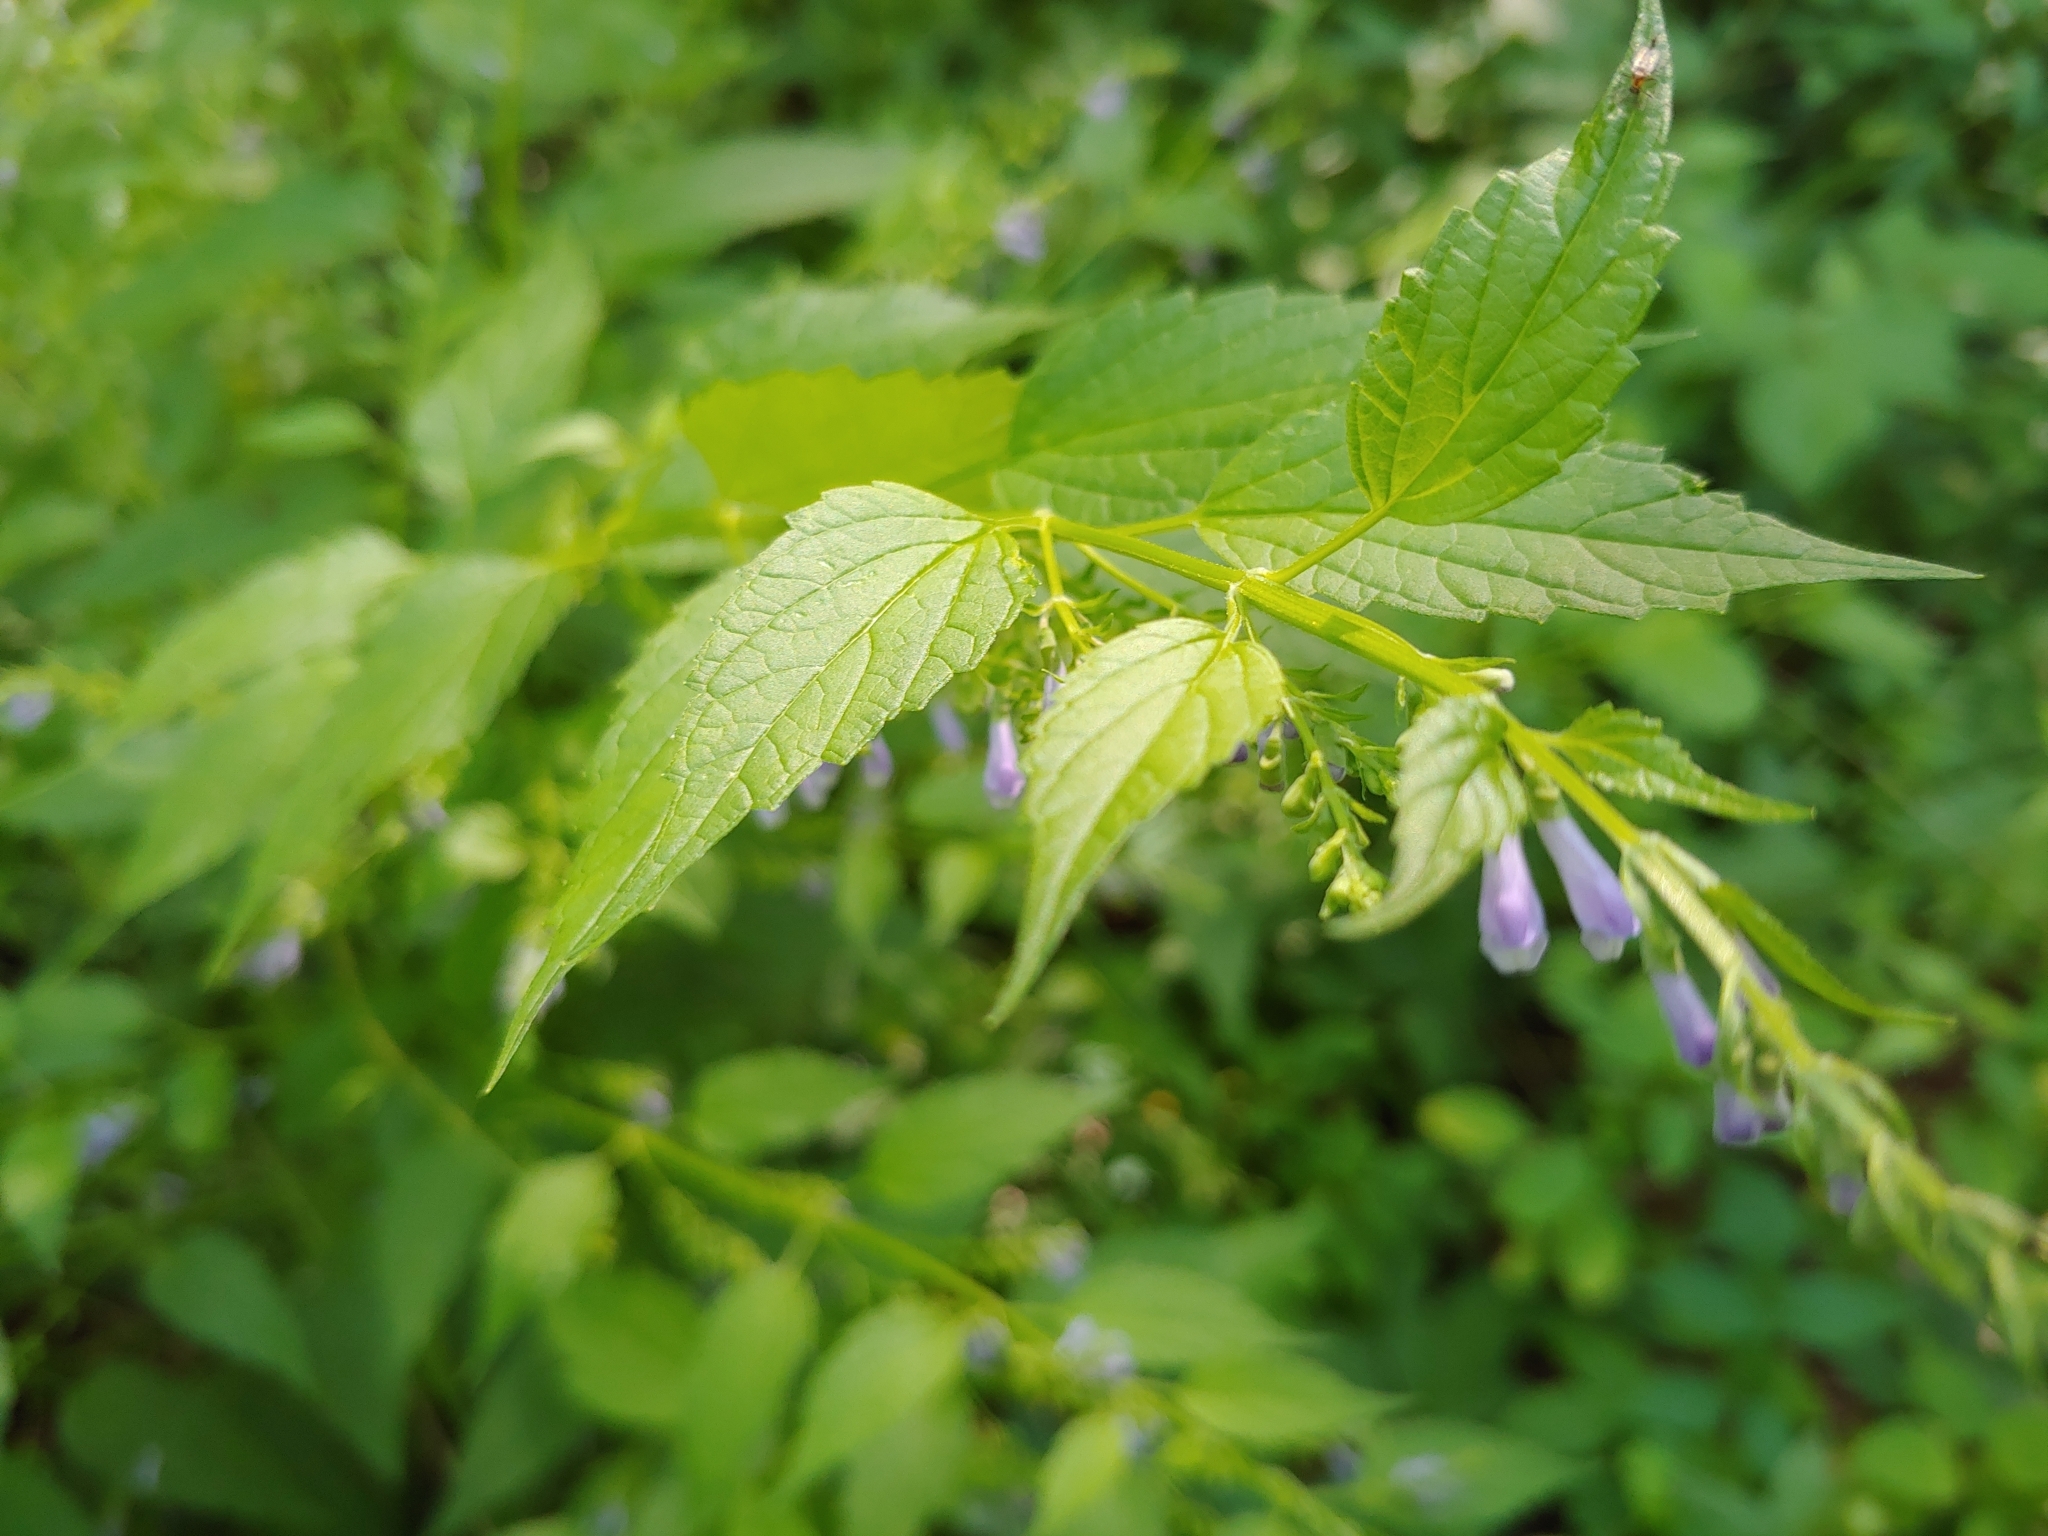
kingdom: Plantae
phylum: Tracheophyta
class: Magnoliopsida
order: Lamiales
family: Lamiaceae
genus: Scutellaria
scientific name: Scutellaria lateriflora
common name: Blue skullcap
